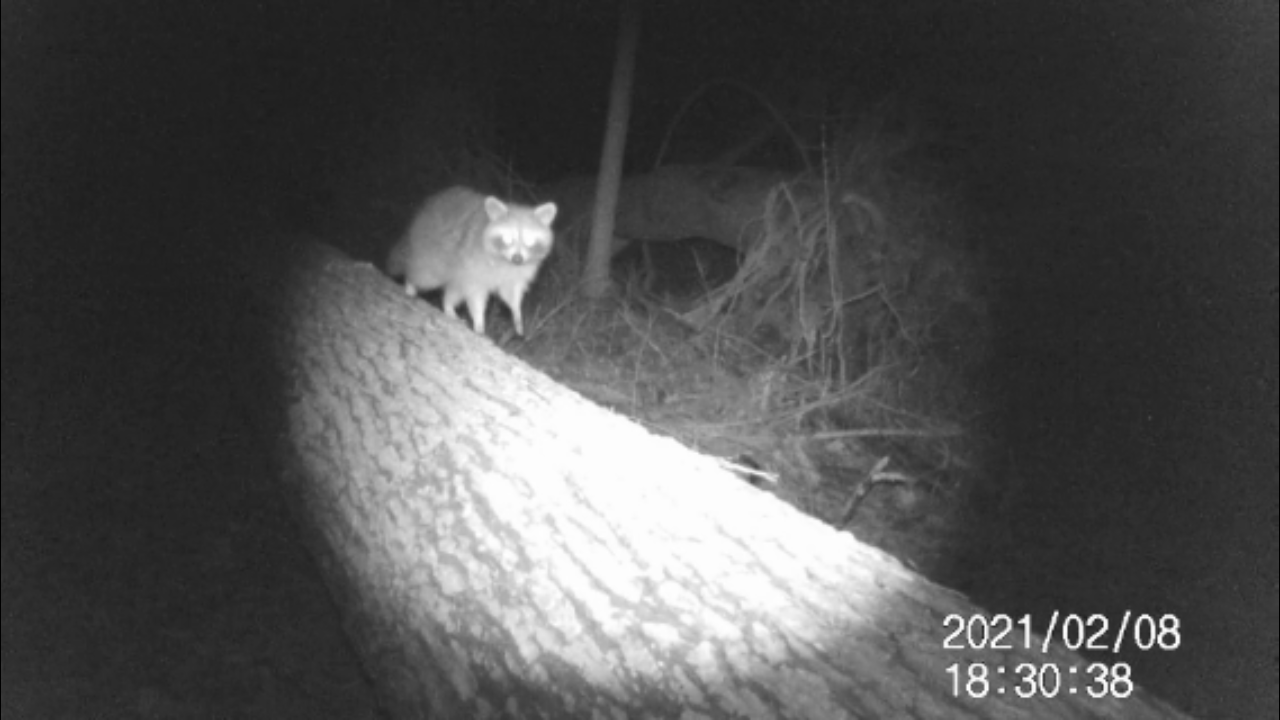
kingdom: Animalia
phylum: Chordata
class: Mammalia
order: Carnivora
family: Procyonidae
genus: Procyon
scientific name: Procyon lotor
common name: Raccoon
